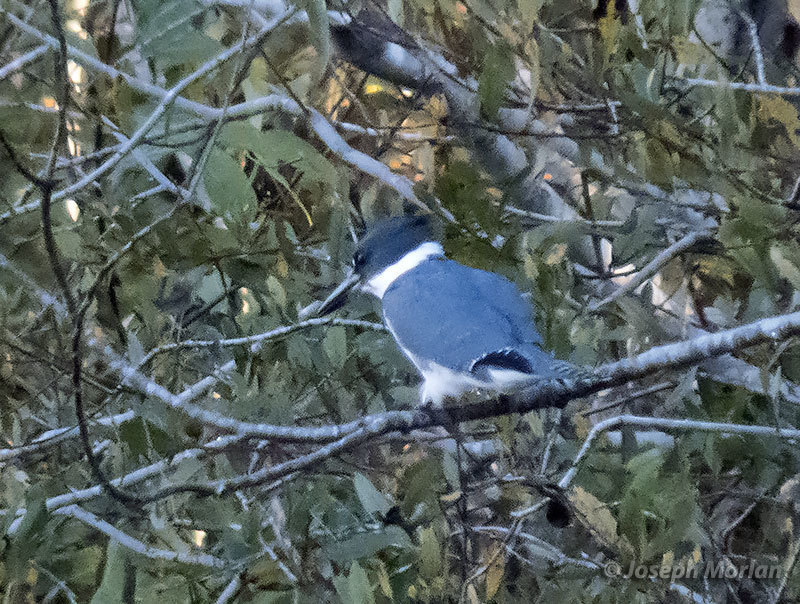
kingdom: Animalia
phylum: Chordata
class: Aves
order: Coraciiformes
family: Alcedinidae
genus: Megaceryle
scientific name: Megaceryle alcyon
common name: Belted kingfisher
